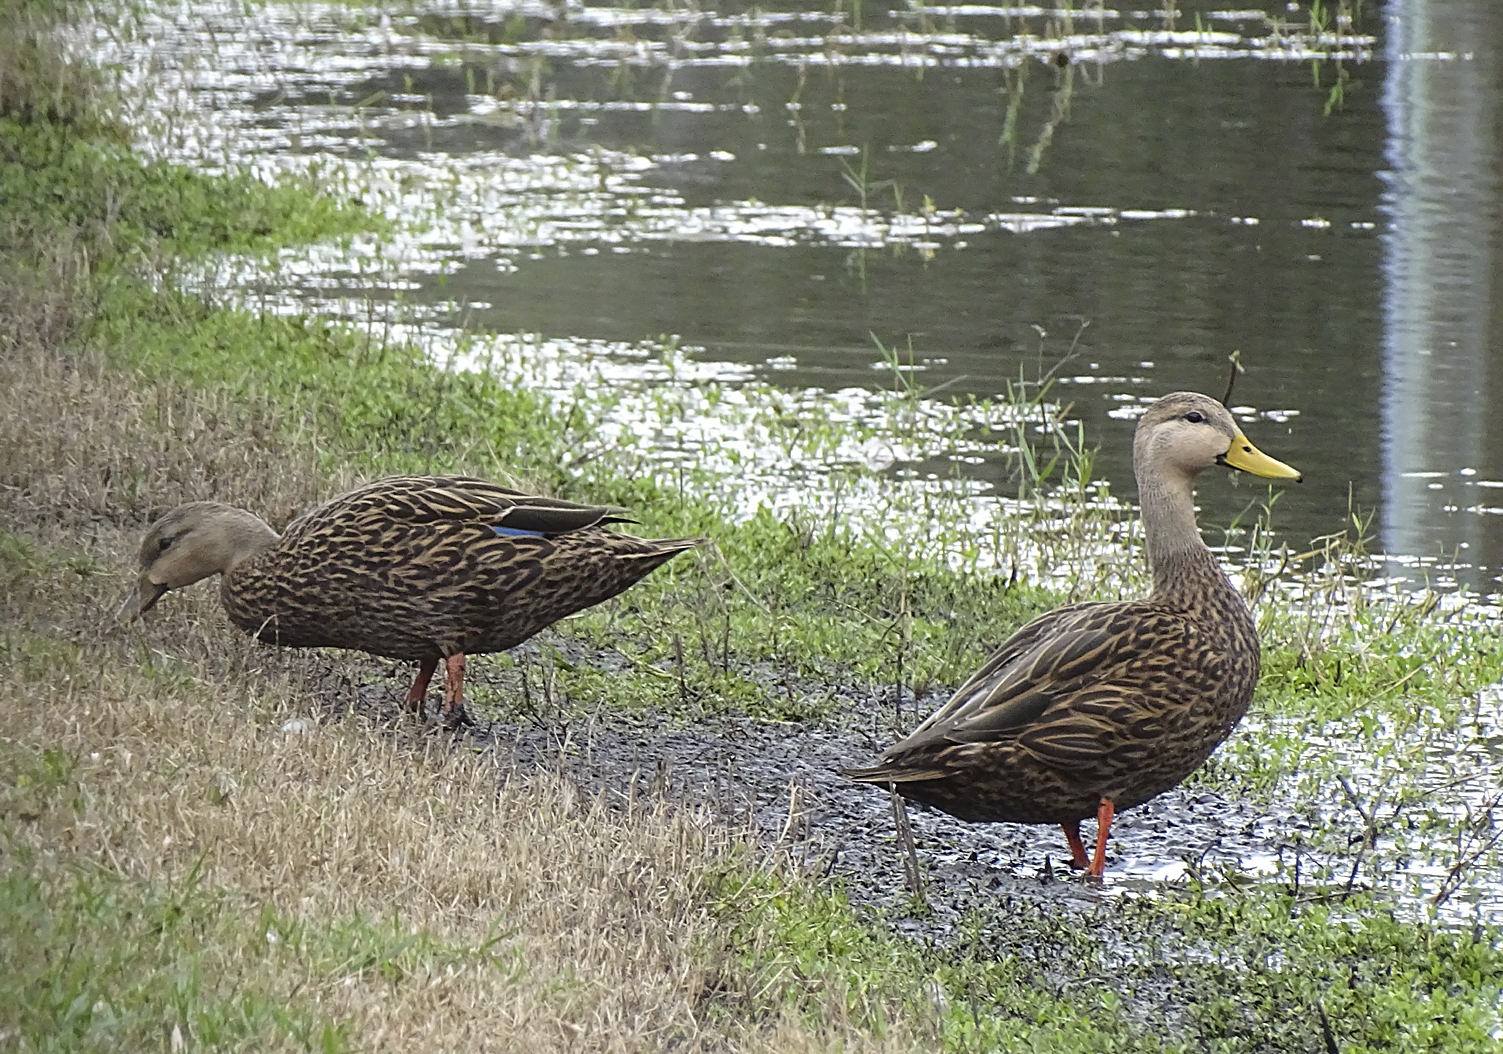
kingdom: Animalia
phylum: Chordata
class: Aves
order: Anseriformes
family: Anatidae
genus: Anas
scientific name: Anas fulvigula
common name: Mottled duck
